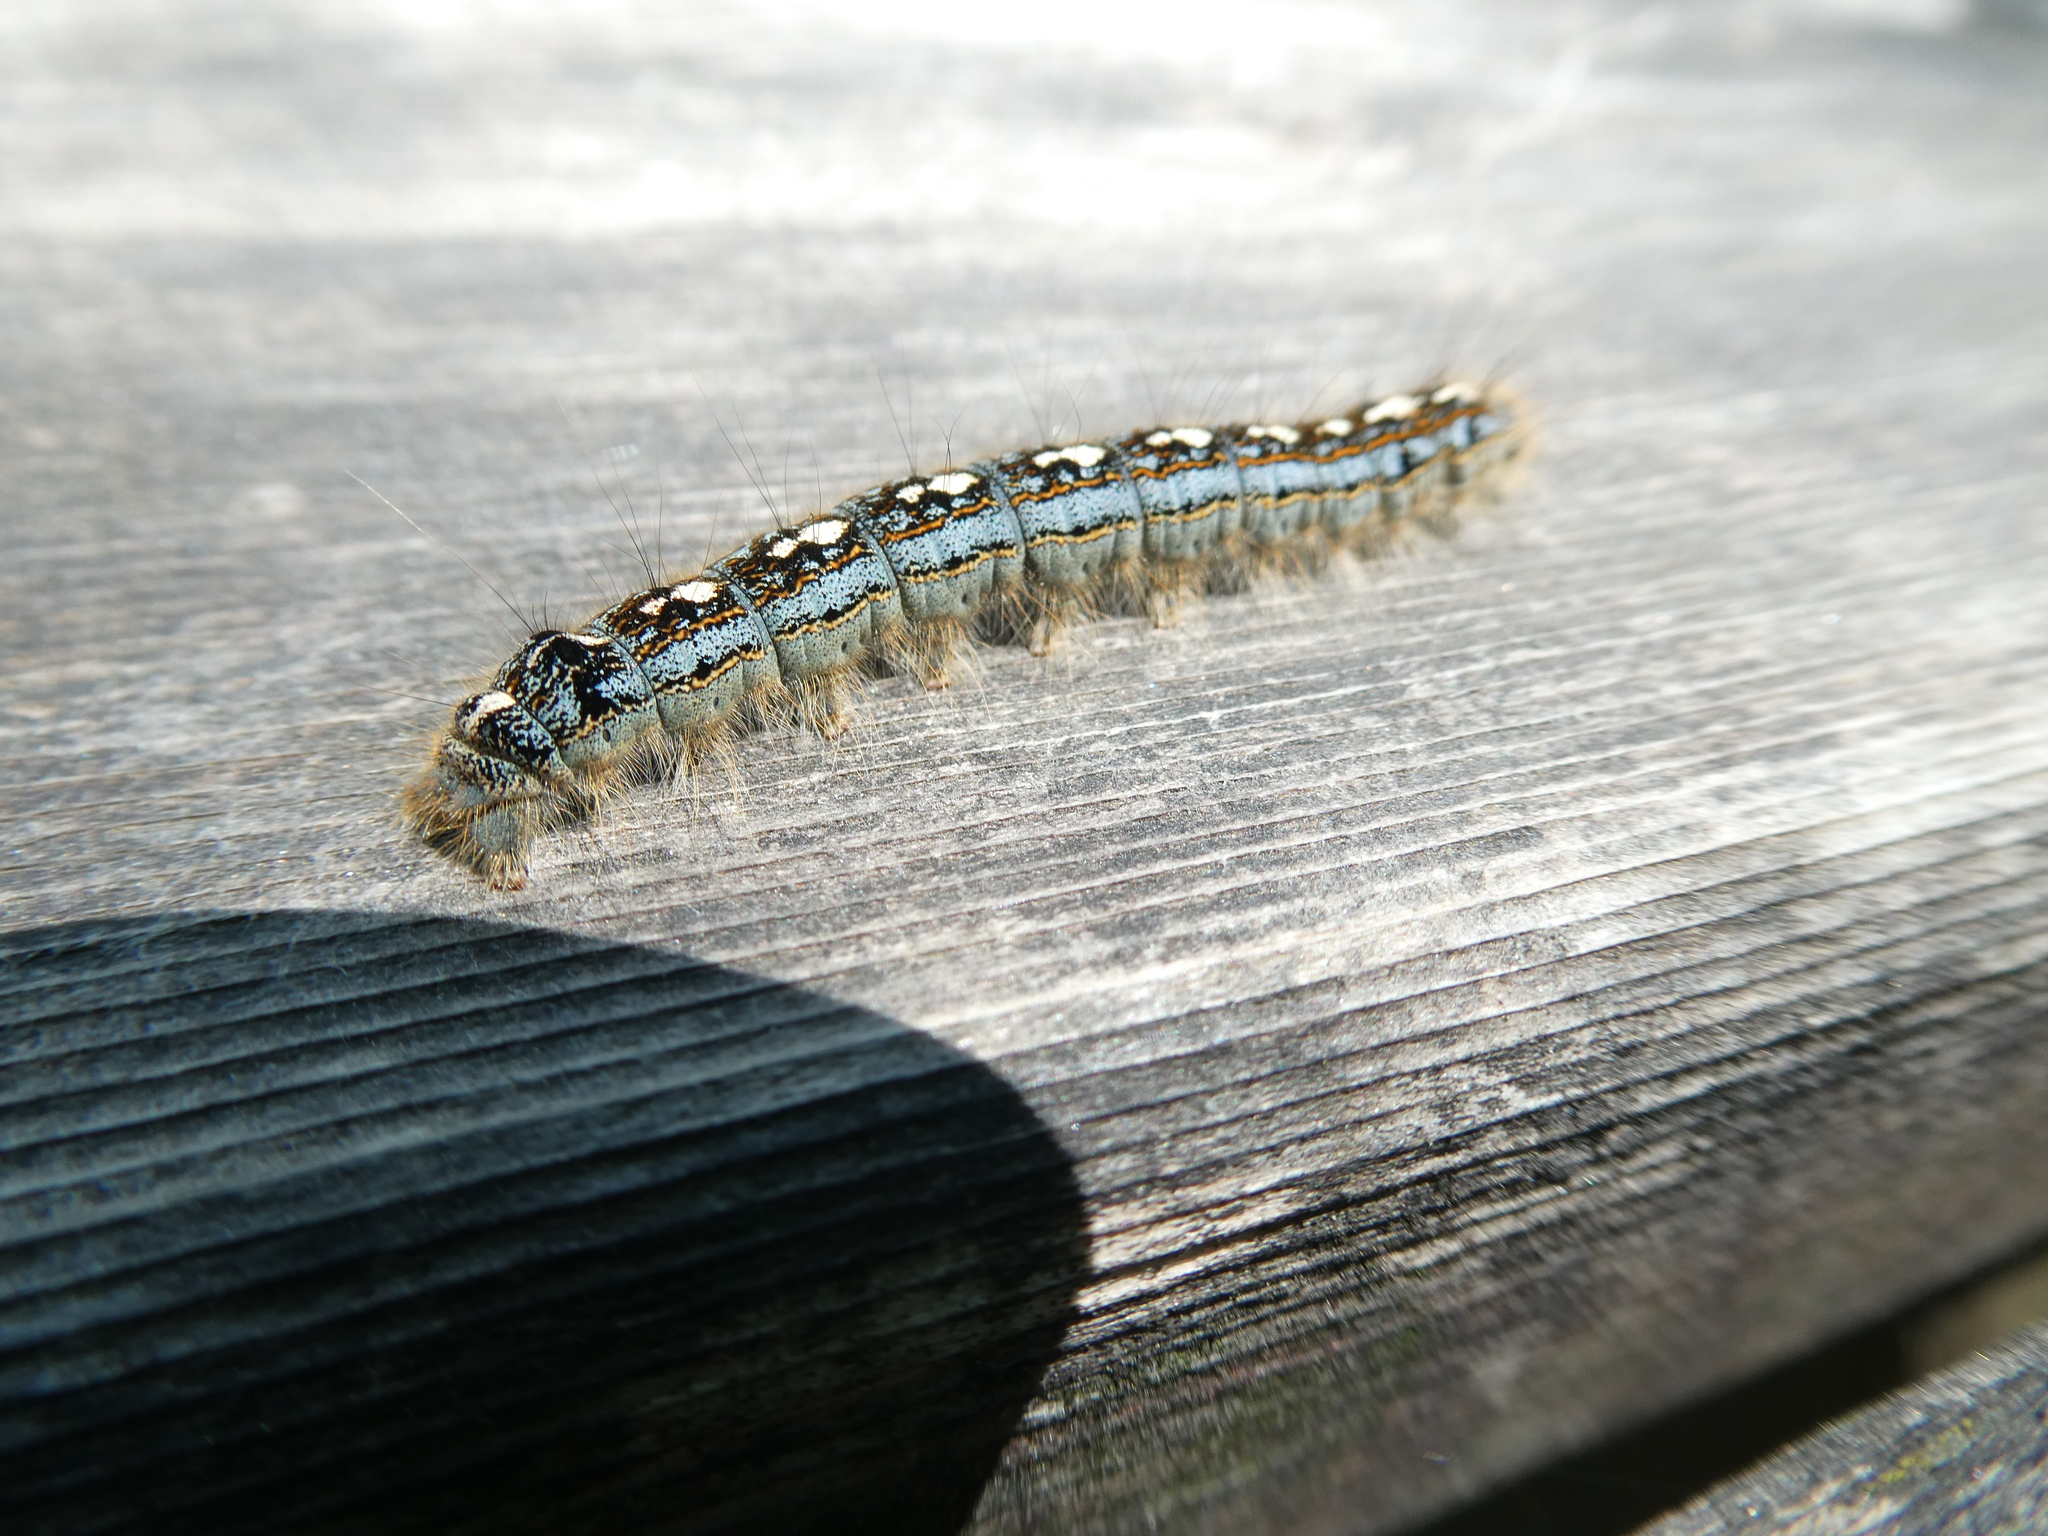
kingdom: Animalia
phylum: Arthropoda
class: Insecta
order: Lepidoptera
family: Lasiocampidae
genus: Malacosoma
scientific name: Malacosoma disstria
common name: Forest tent caterpillar
